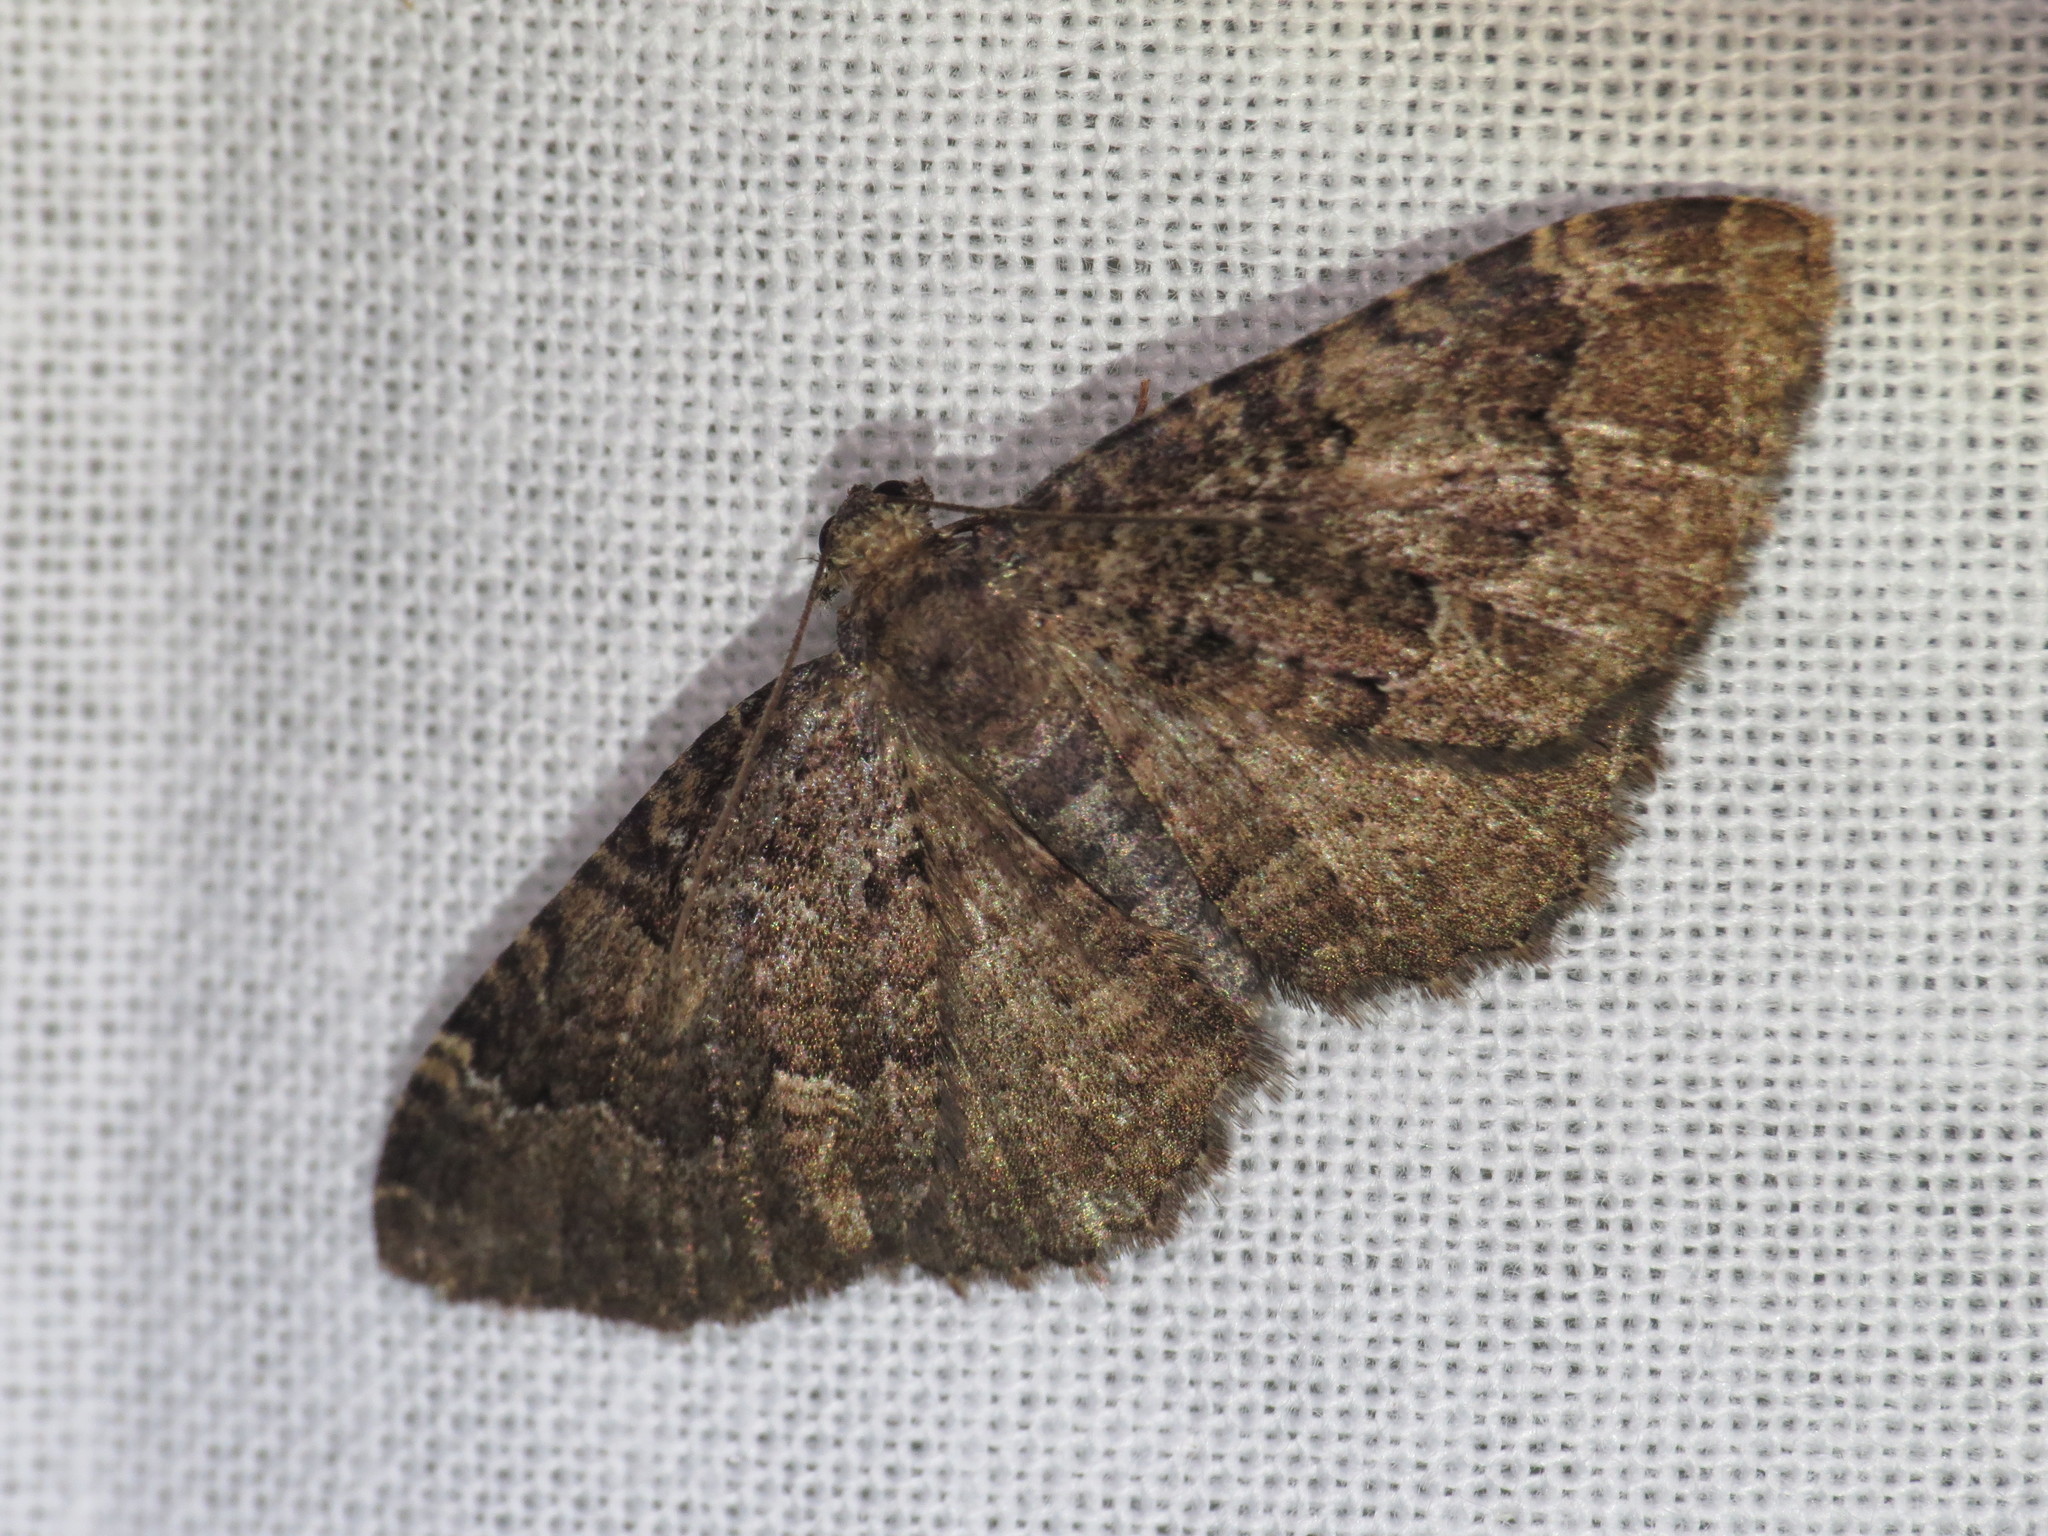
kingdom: Animalia
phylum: Arthropoda
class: Insecta
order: Lepidoptera
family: Geometridae
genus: Visiana
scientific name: Visiana brujata
